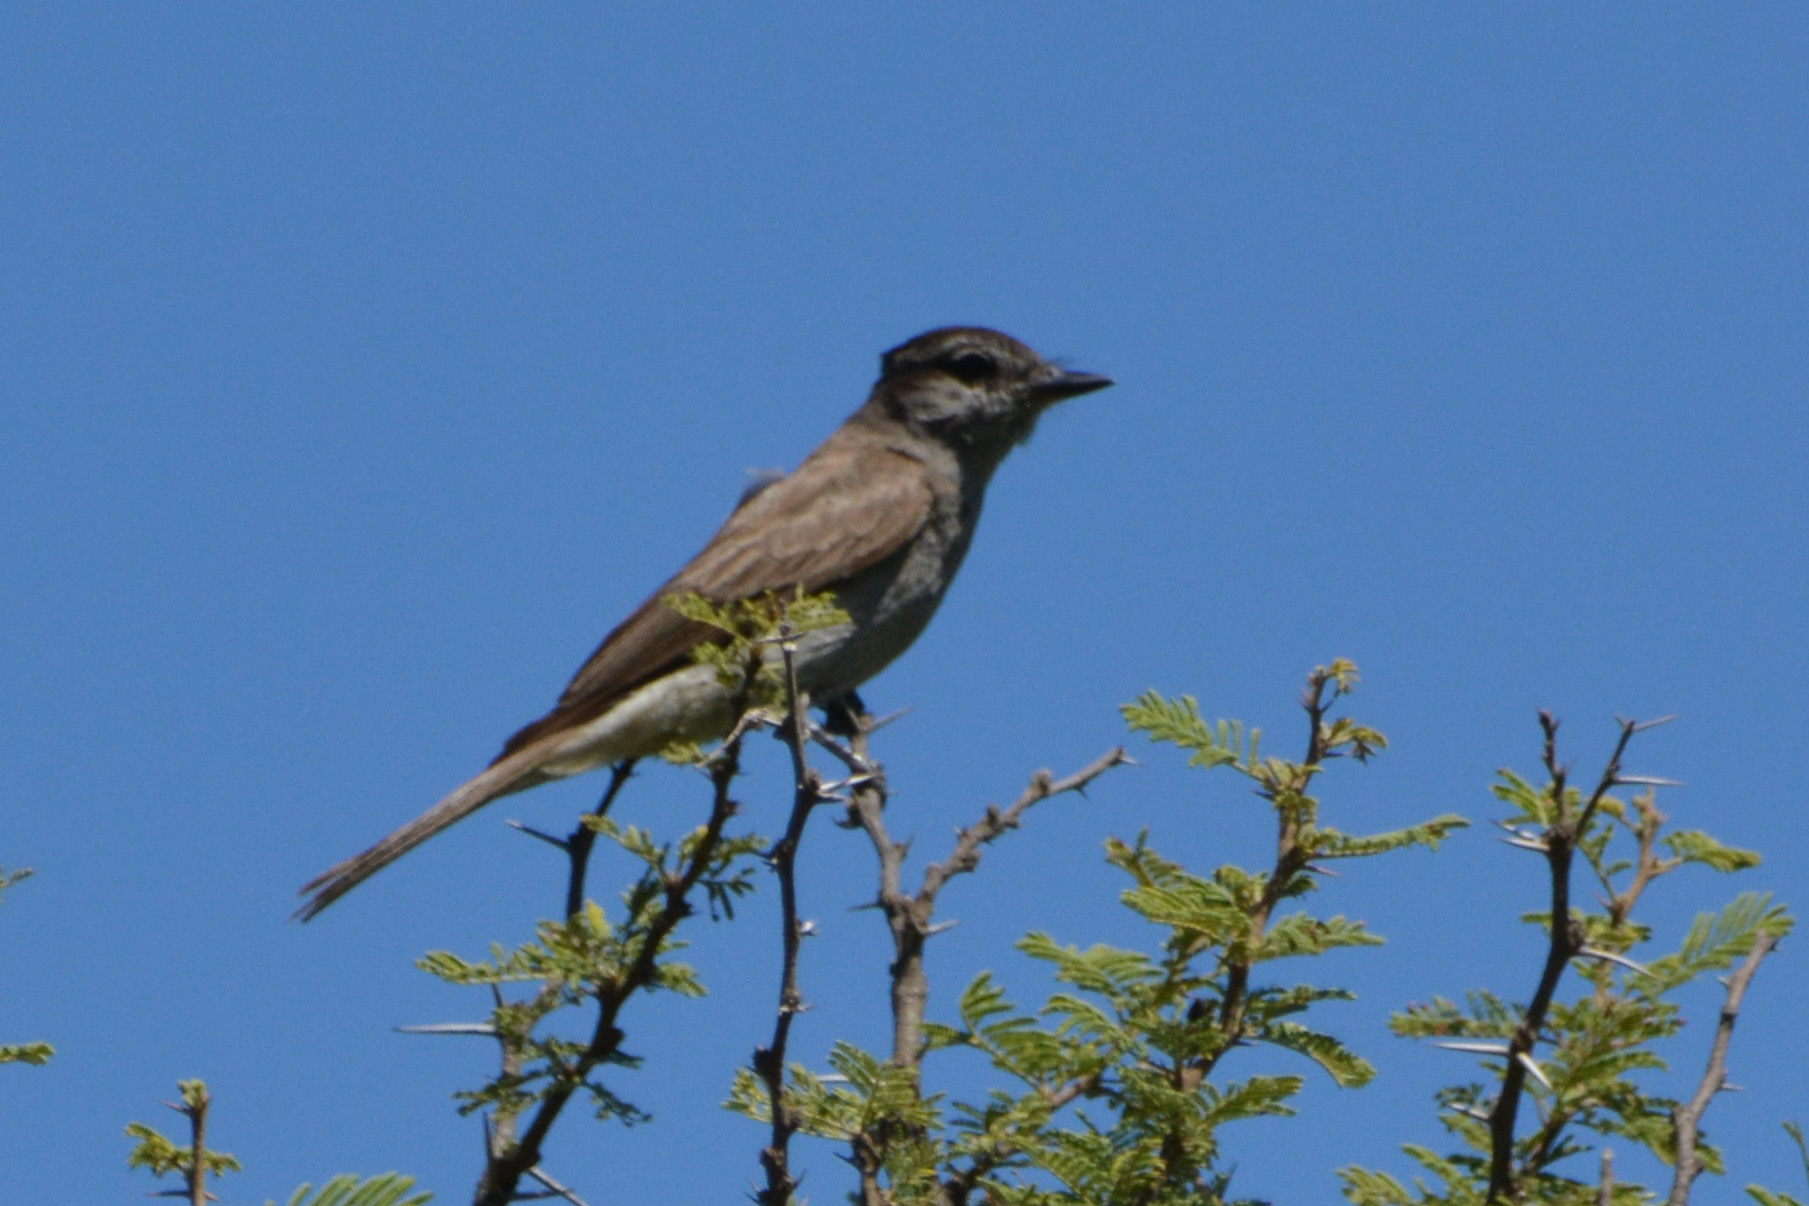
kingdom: Animalia
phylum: Chordata
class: Aves
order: Passeriformes
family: Tyrannidae
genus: Empidonomus
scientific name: Empidonomus aurantioatrocristatus
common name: Crowned slaty flycatcher
